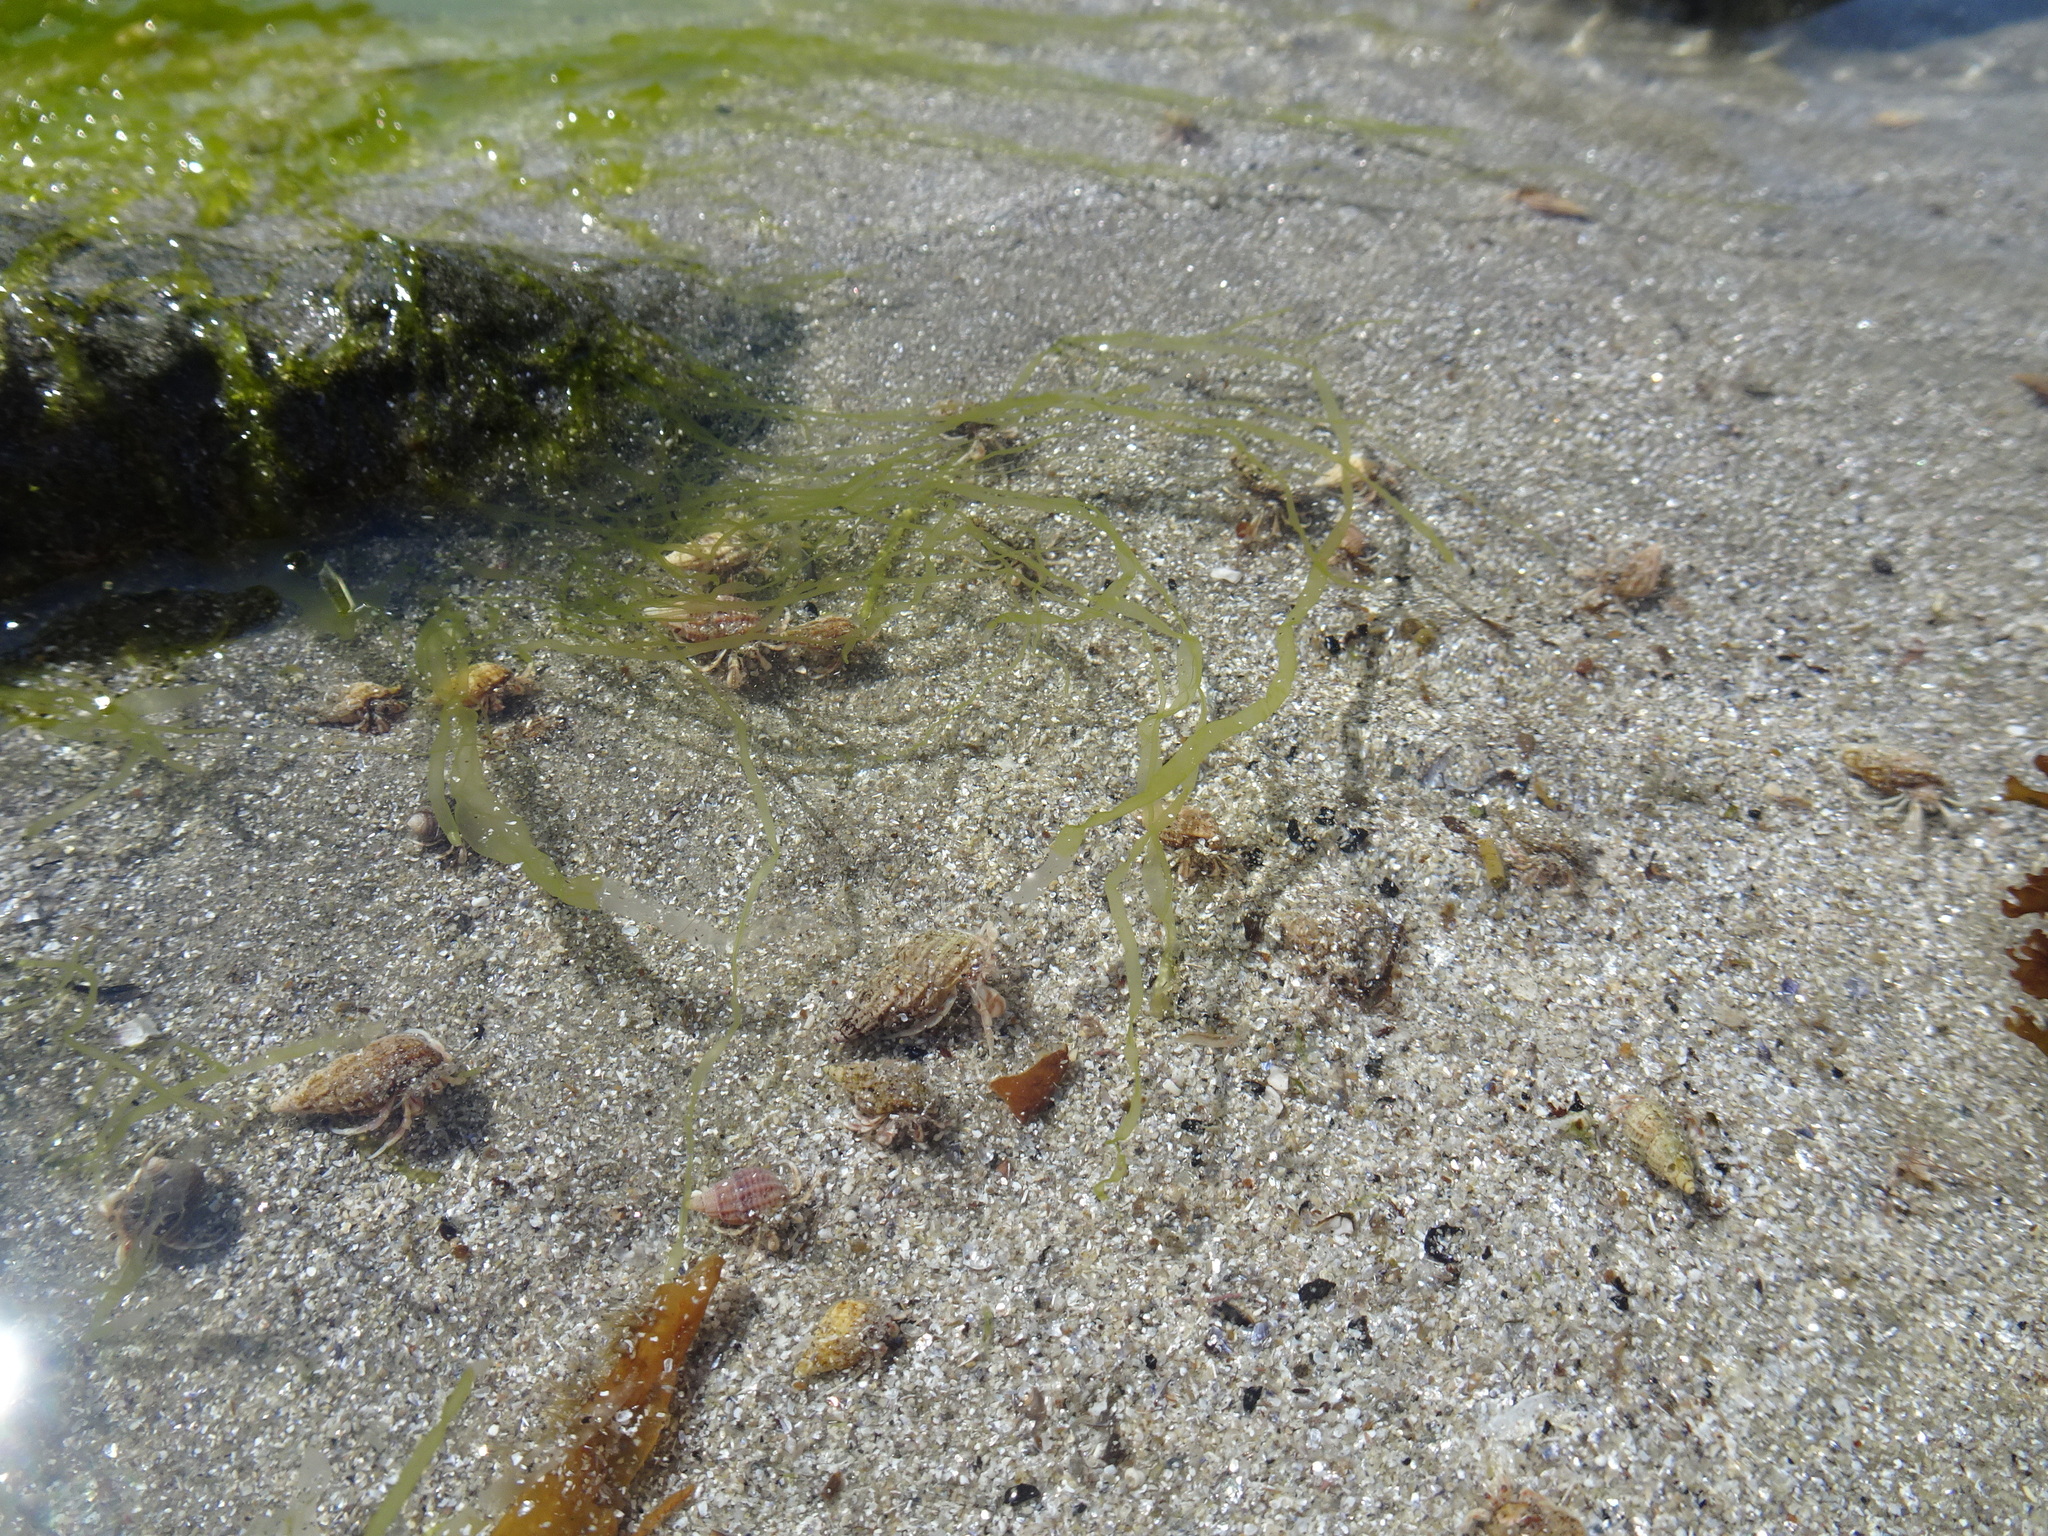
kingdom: Animalia
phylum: Arthropoda
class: Malacostraca
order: Decapoda
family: Paguridae
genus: Pagurus
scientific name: Pagurus longicarpus
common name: Long-armed hermit crab
